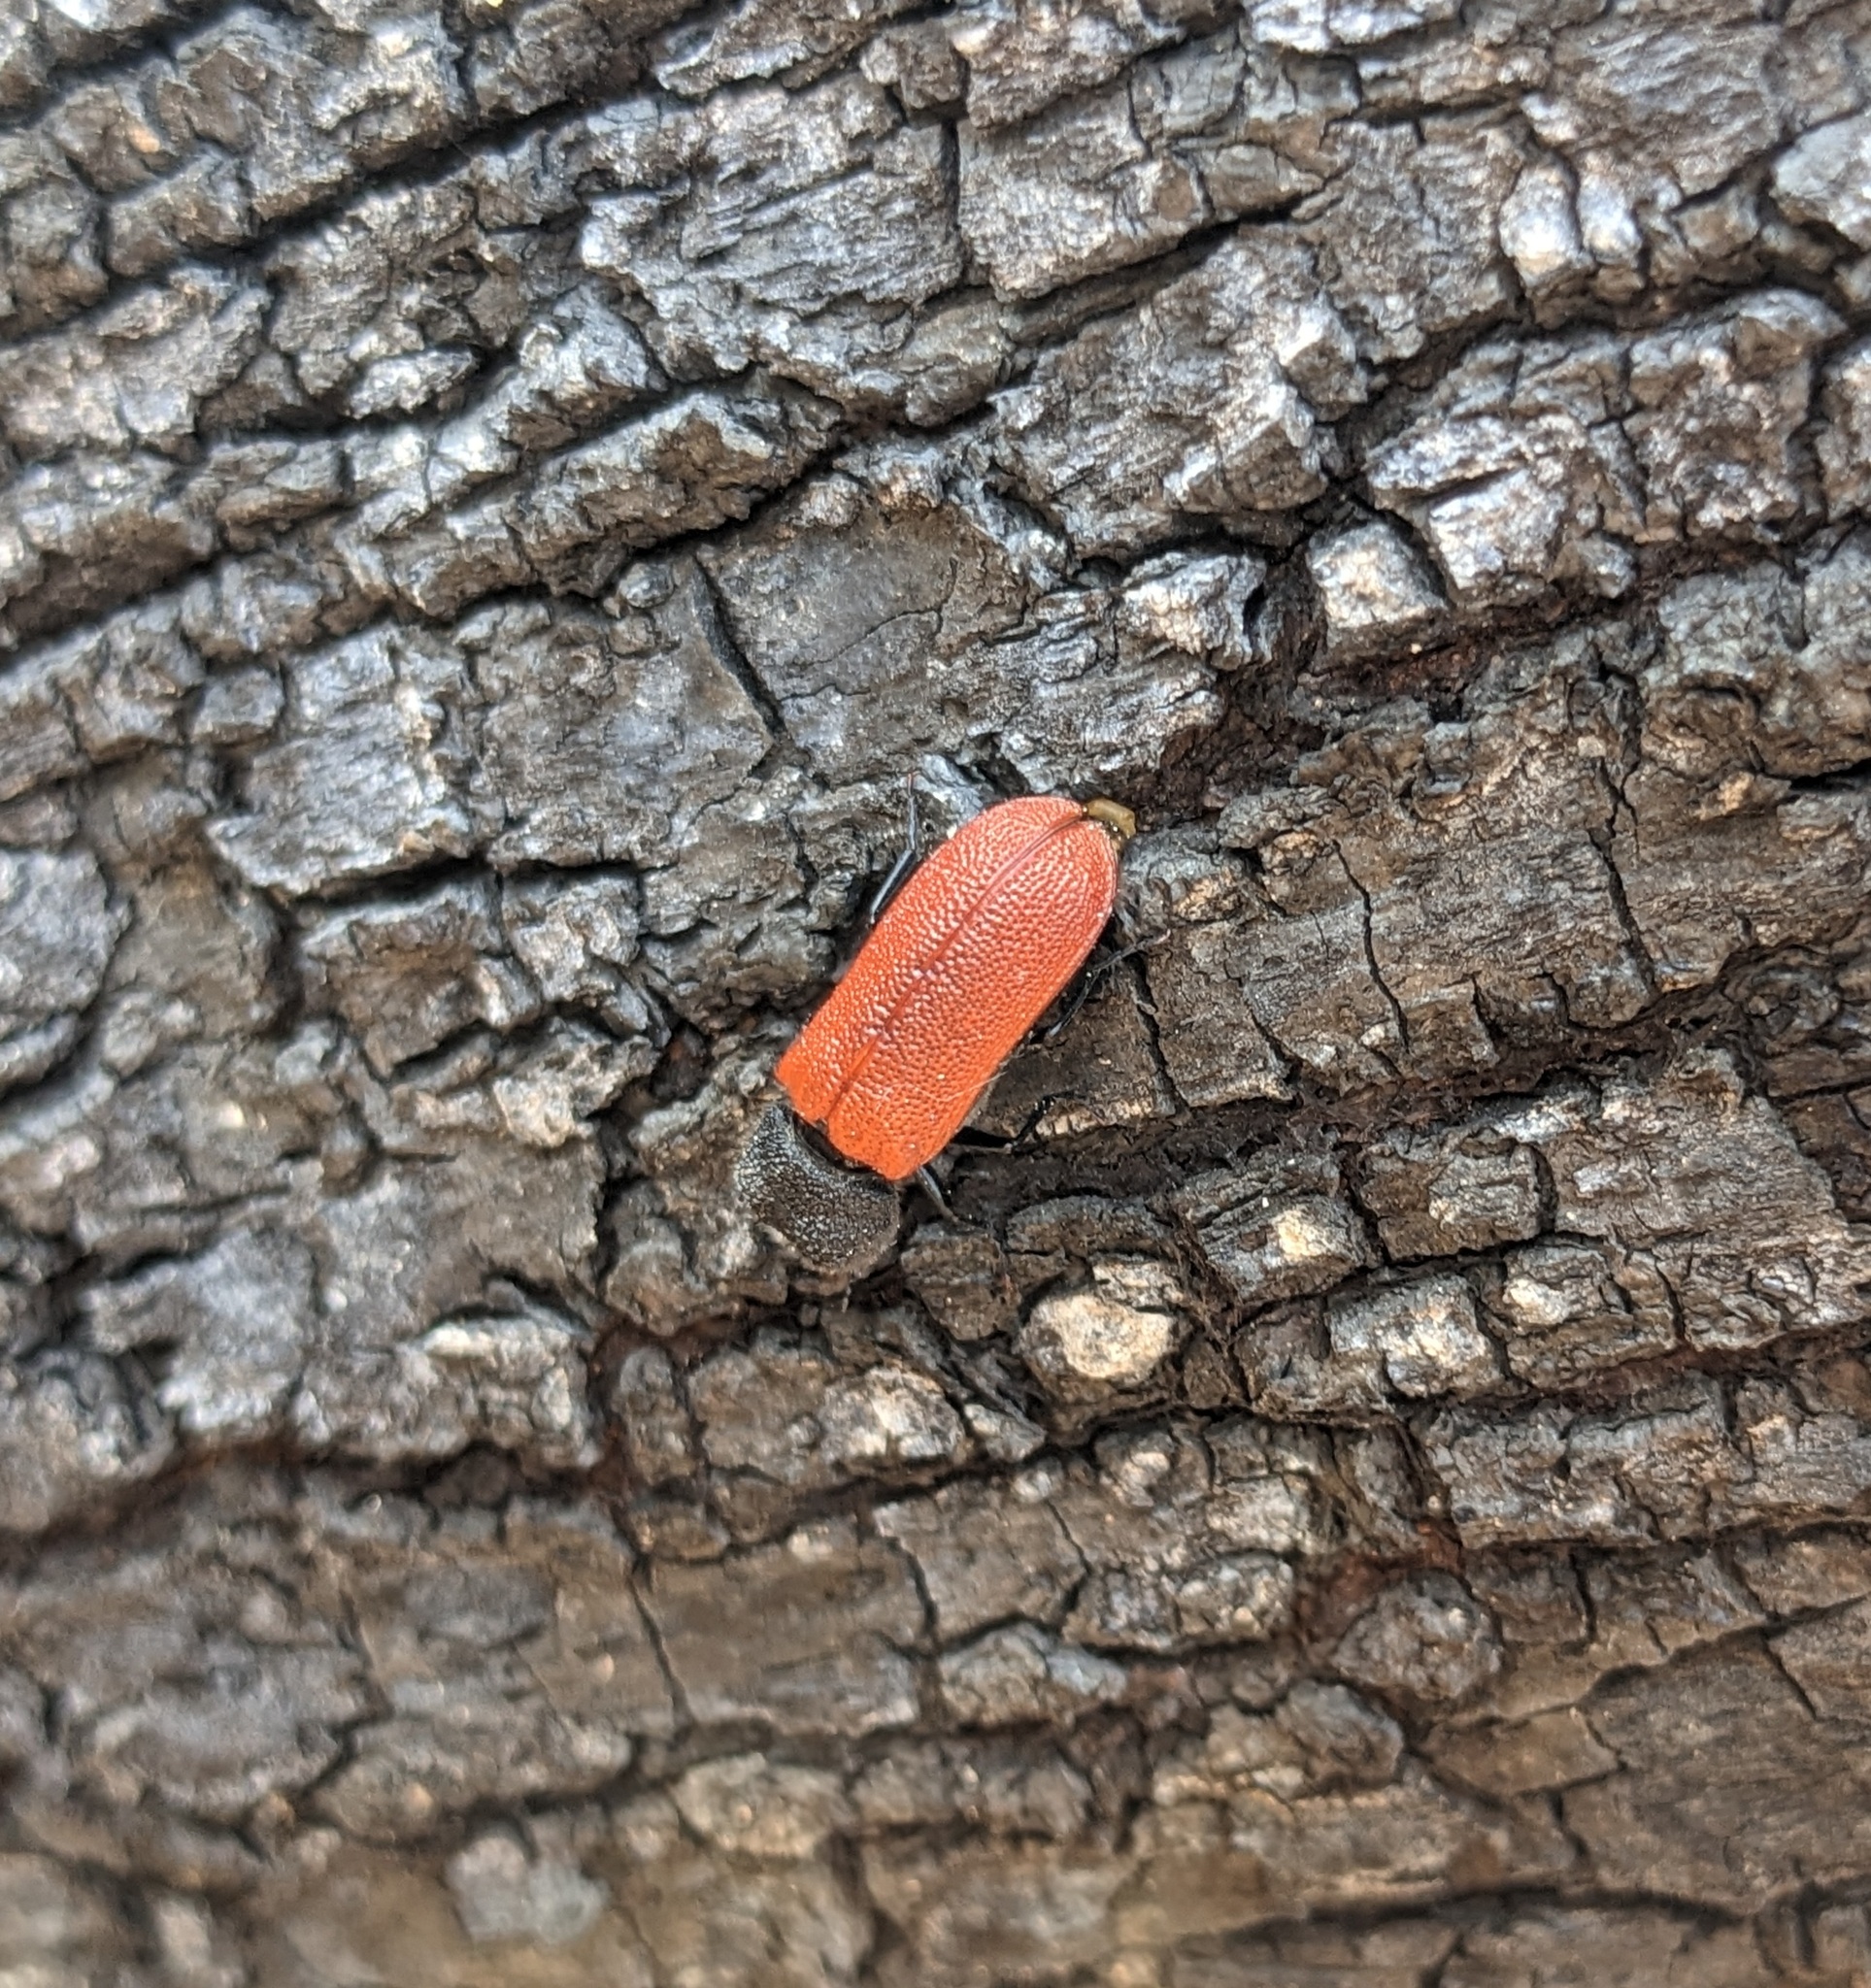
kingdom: Animalia
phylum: Arthropoda
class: Insecta
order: Coleoptera
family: Bostrichidae
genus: Bostrichus
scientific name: Bostrichus capucinus
